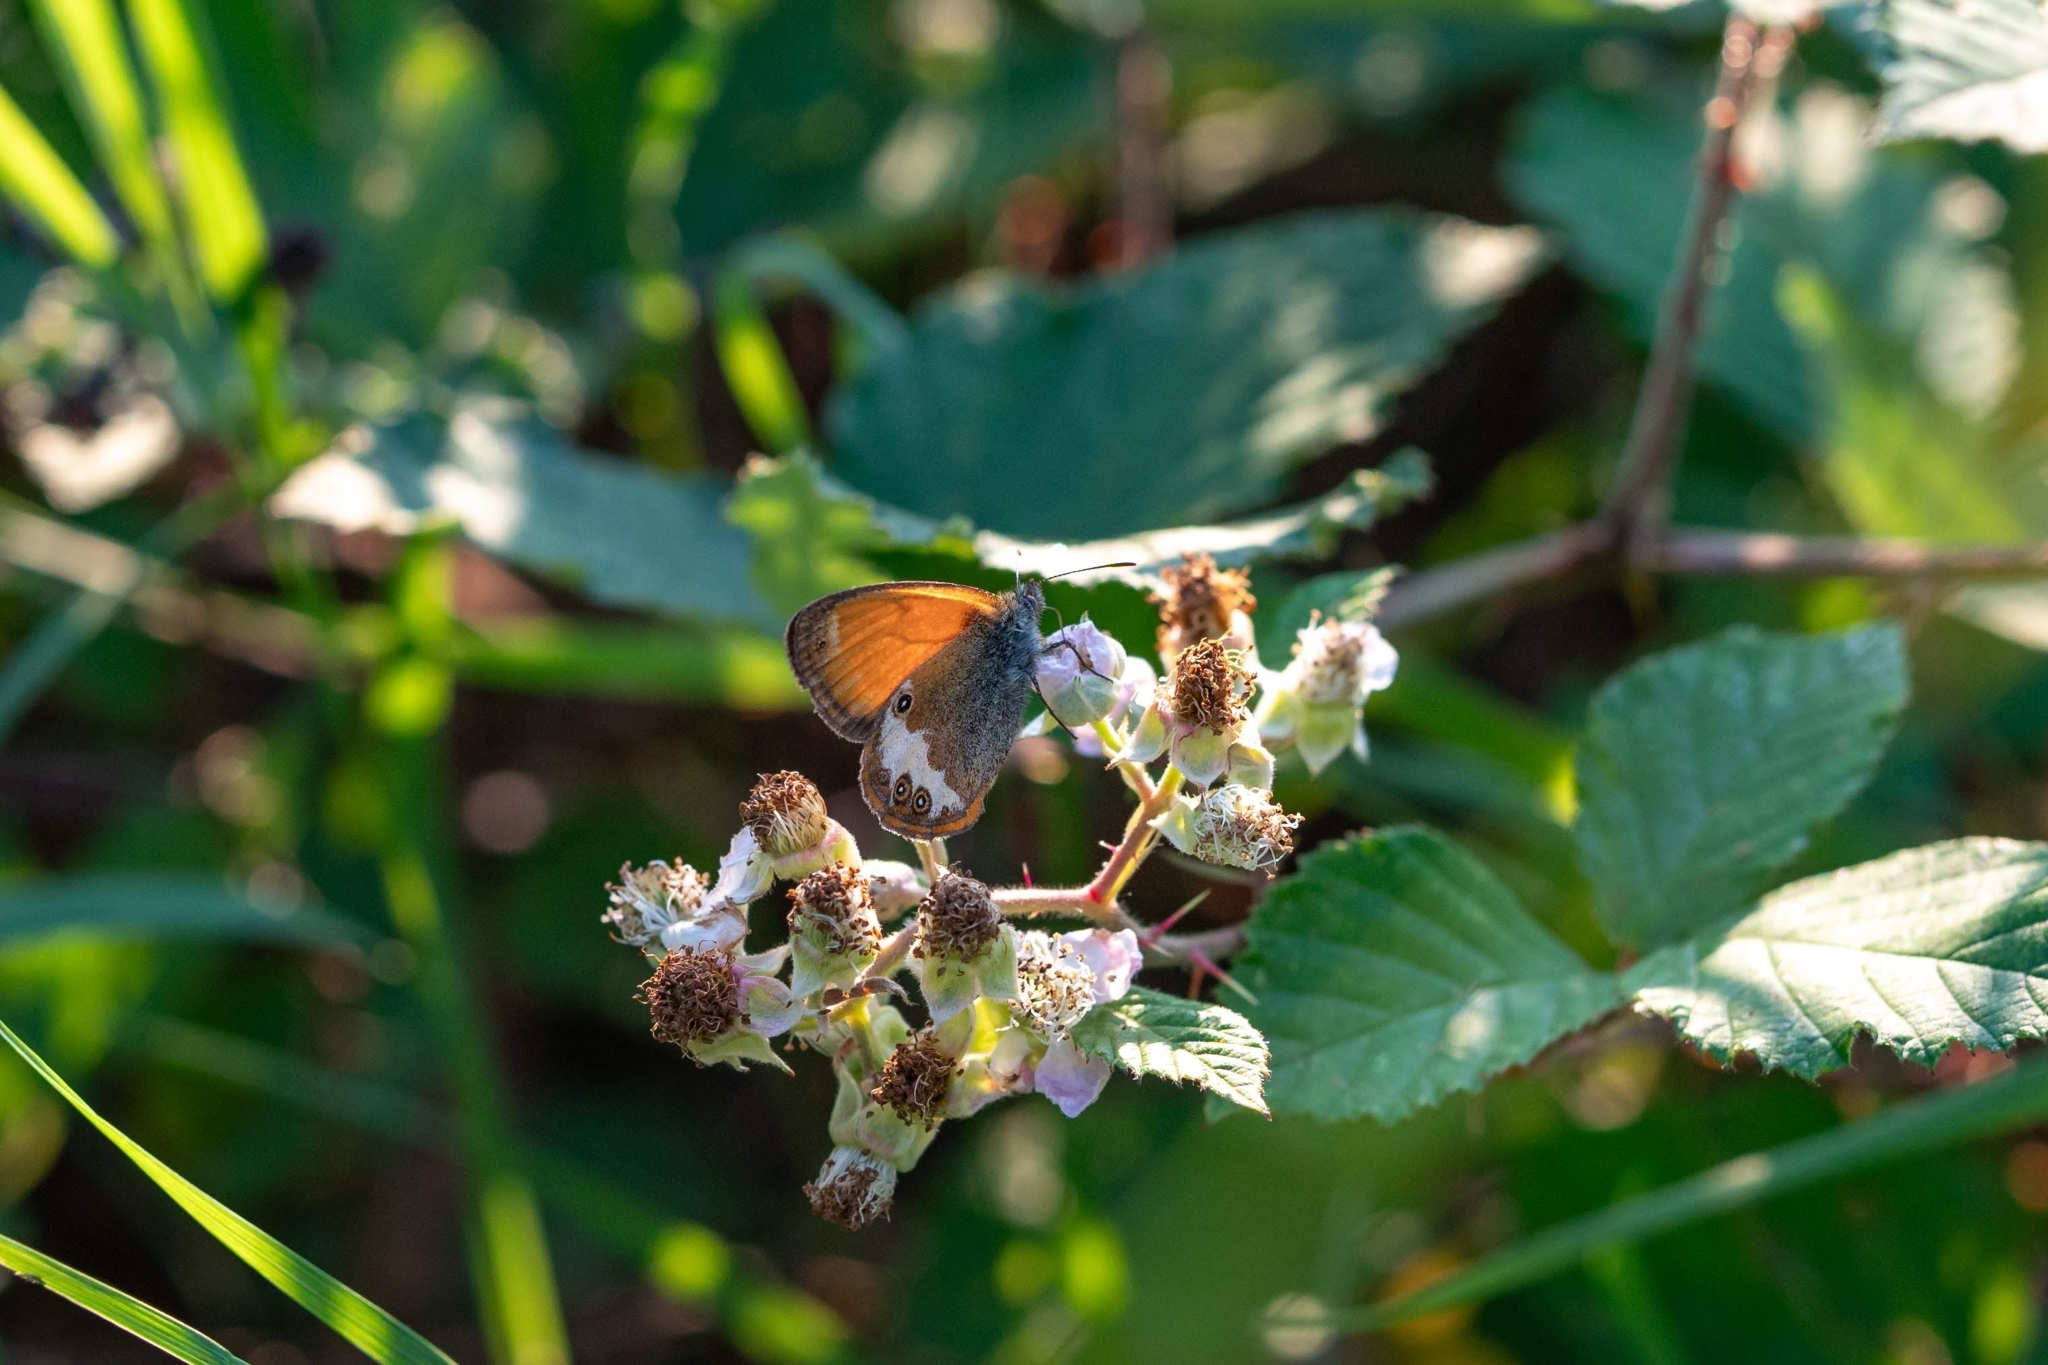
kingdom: Animalia
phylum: Arthropoda
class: Insecta
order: Lepidoptera
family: Nymphalidae
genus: Coenonympha
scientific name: Coenonympha arcania
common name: Pearly heath
